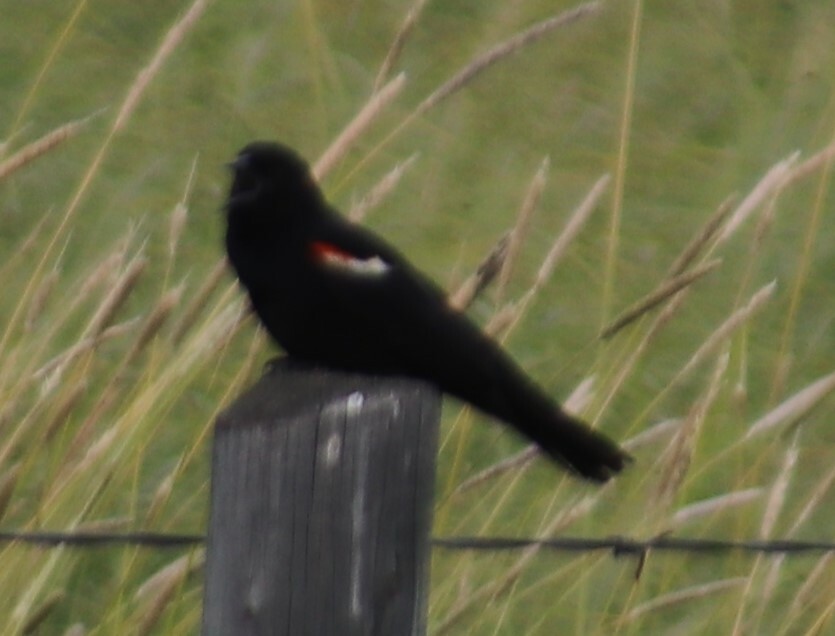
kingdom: Animalia
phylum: Chordata
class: Aves
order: Passeriformes
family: Icteridae
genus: Agelaius
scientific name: Agelaius phoeniceus
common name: Red-winged blackbird
